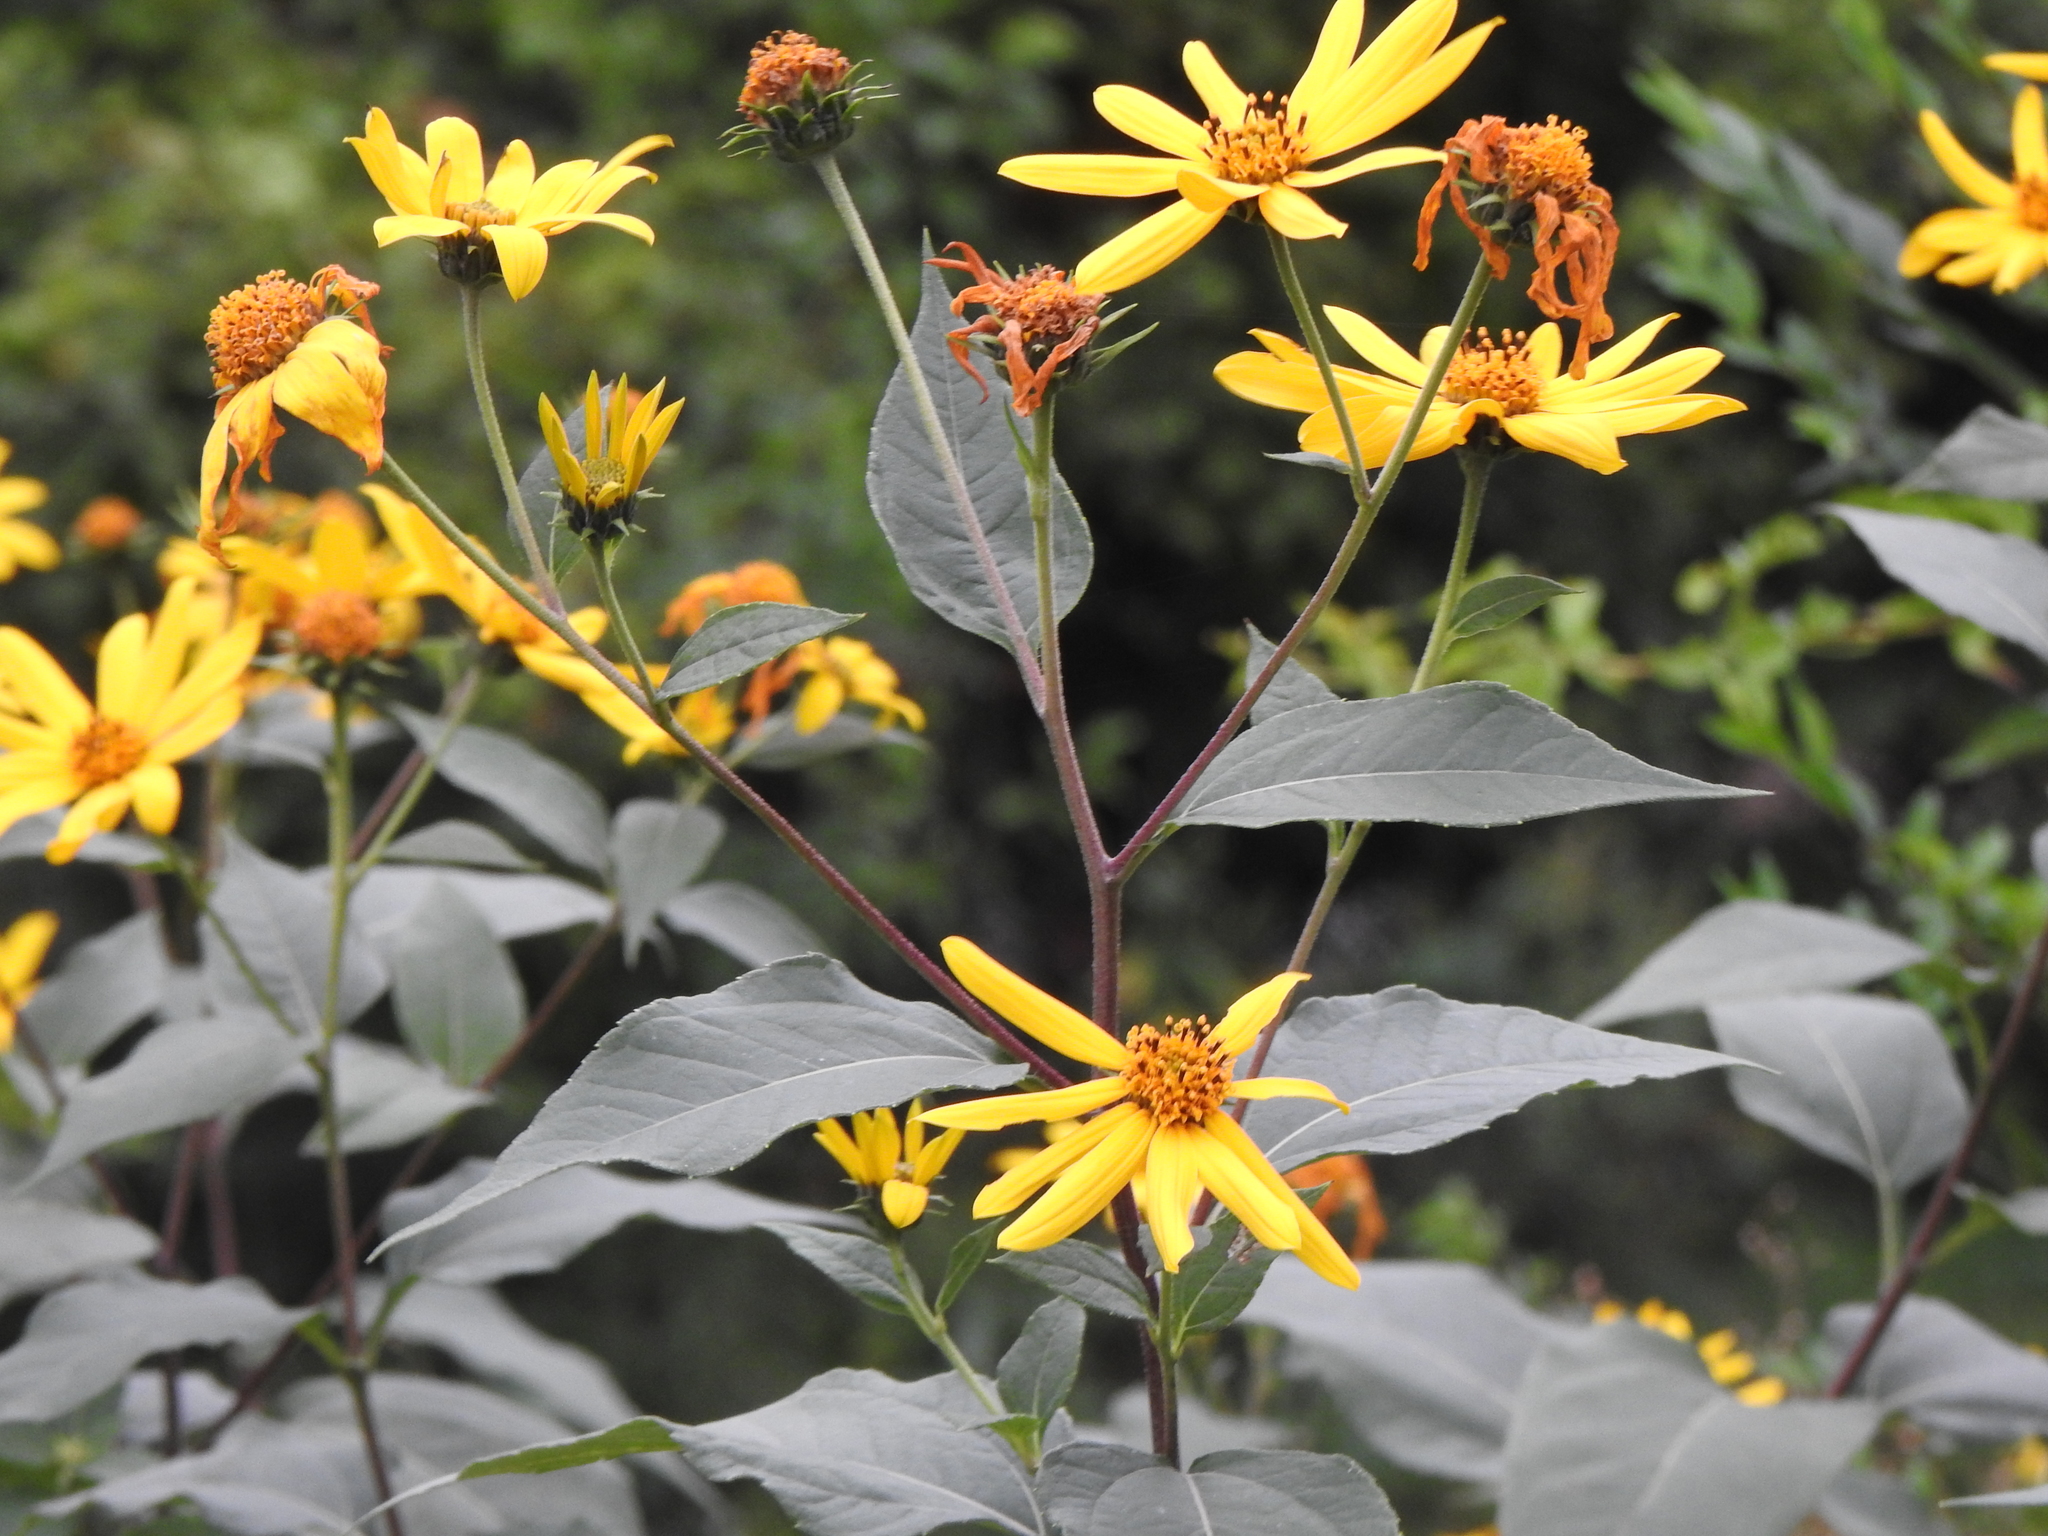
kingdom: Plantae
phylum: Tracheophyta
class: Magnoliopsida
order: Asterales
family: Asteraceae
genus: Helianthus
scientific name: Helianthus tuberosus
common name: Jerusalem artichoke
